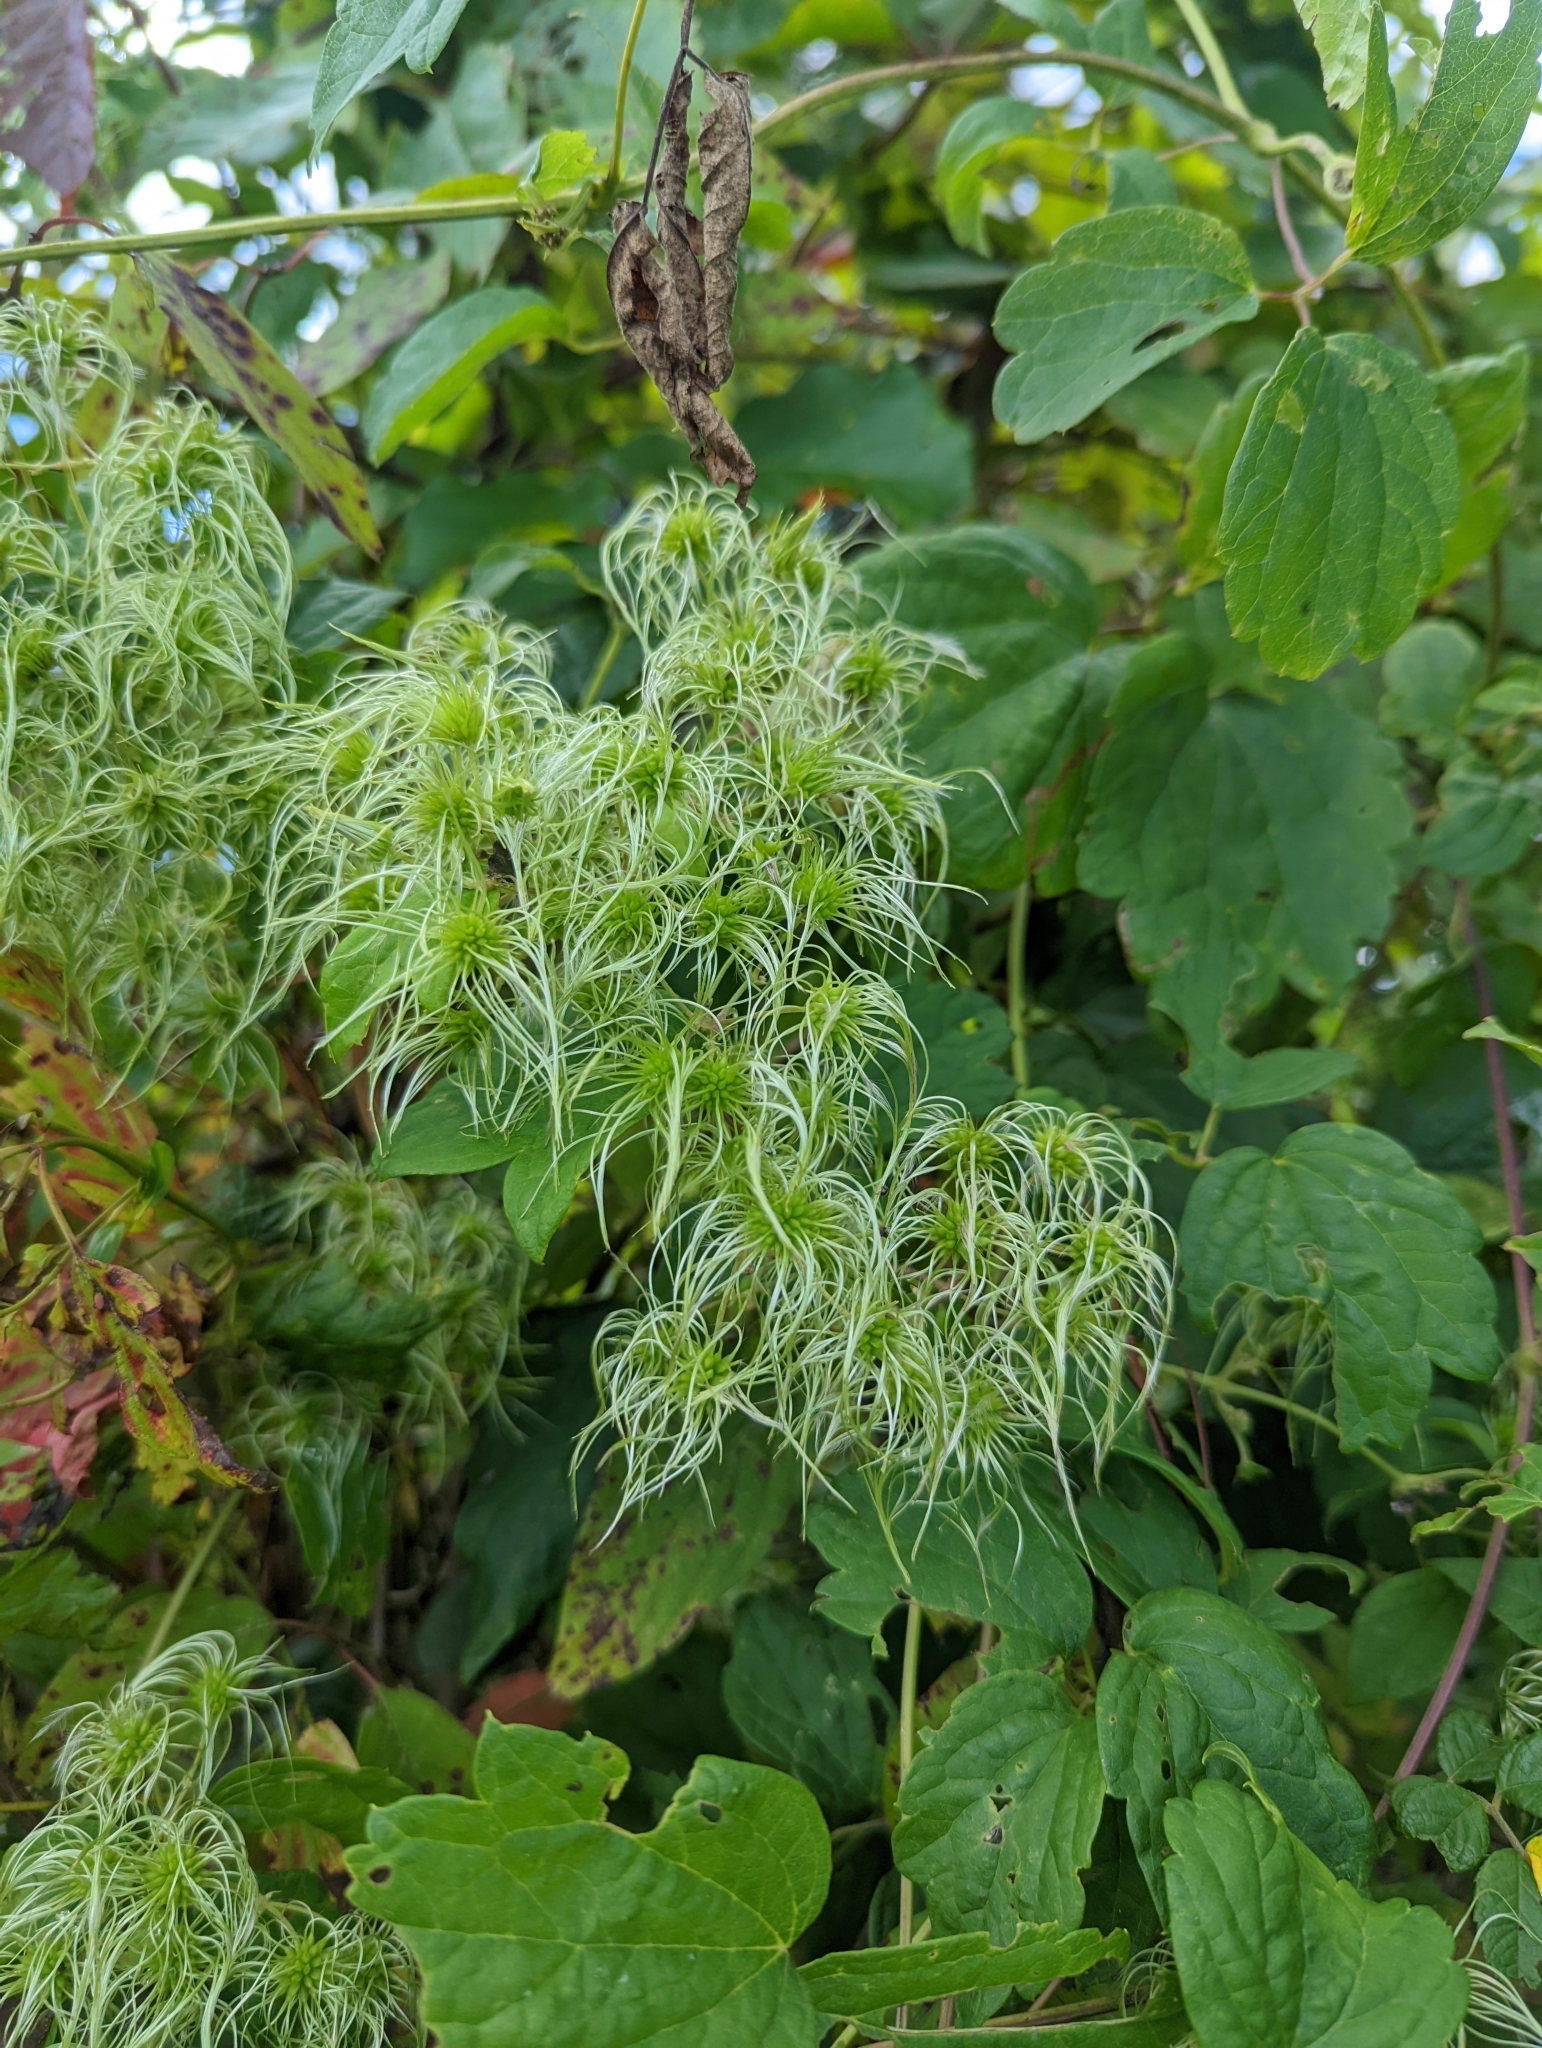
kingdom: Plantae
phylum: Tracheophyta
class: Magnoliopsida
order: Ranunculales
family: Ranunculaceae
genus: Clematis
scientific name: Clematis virginiana
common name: Virgin's-bower
